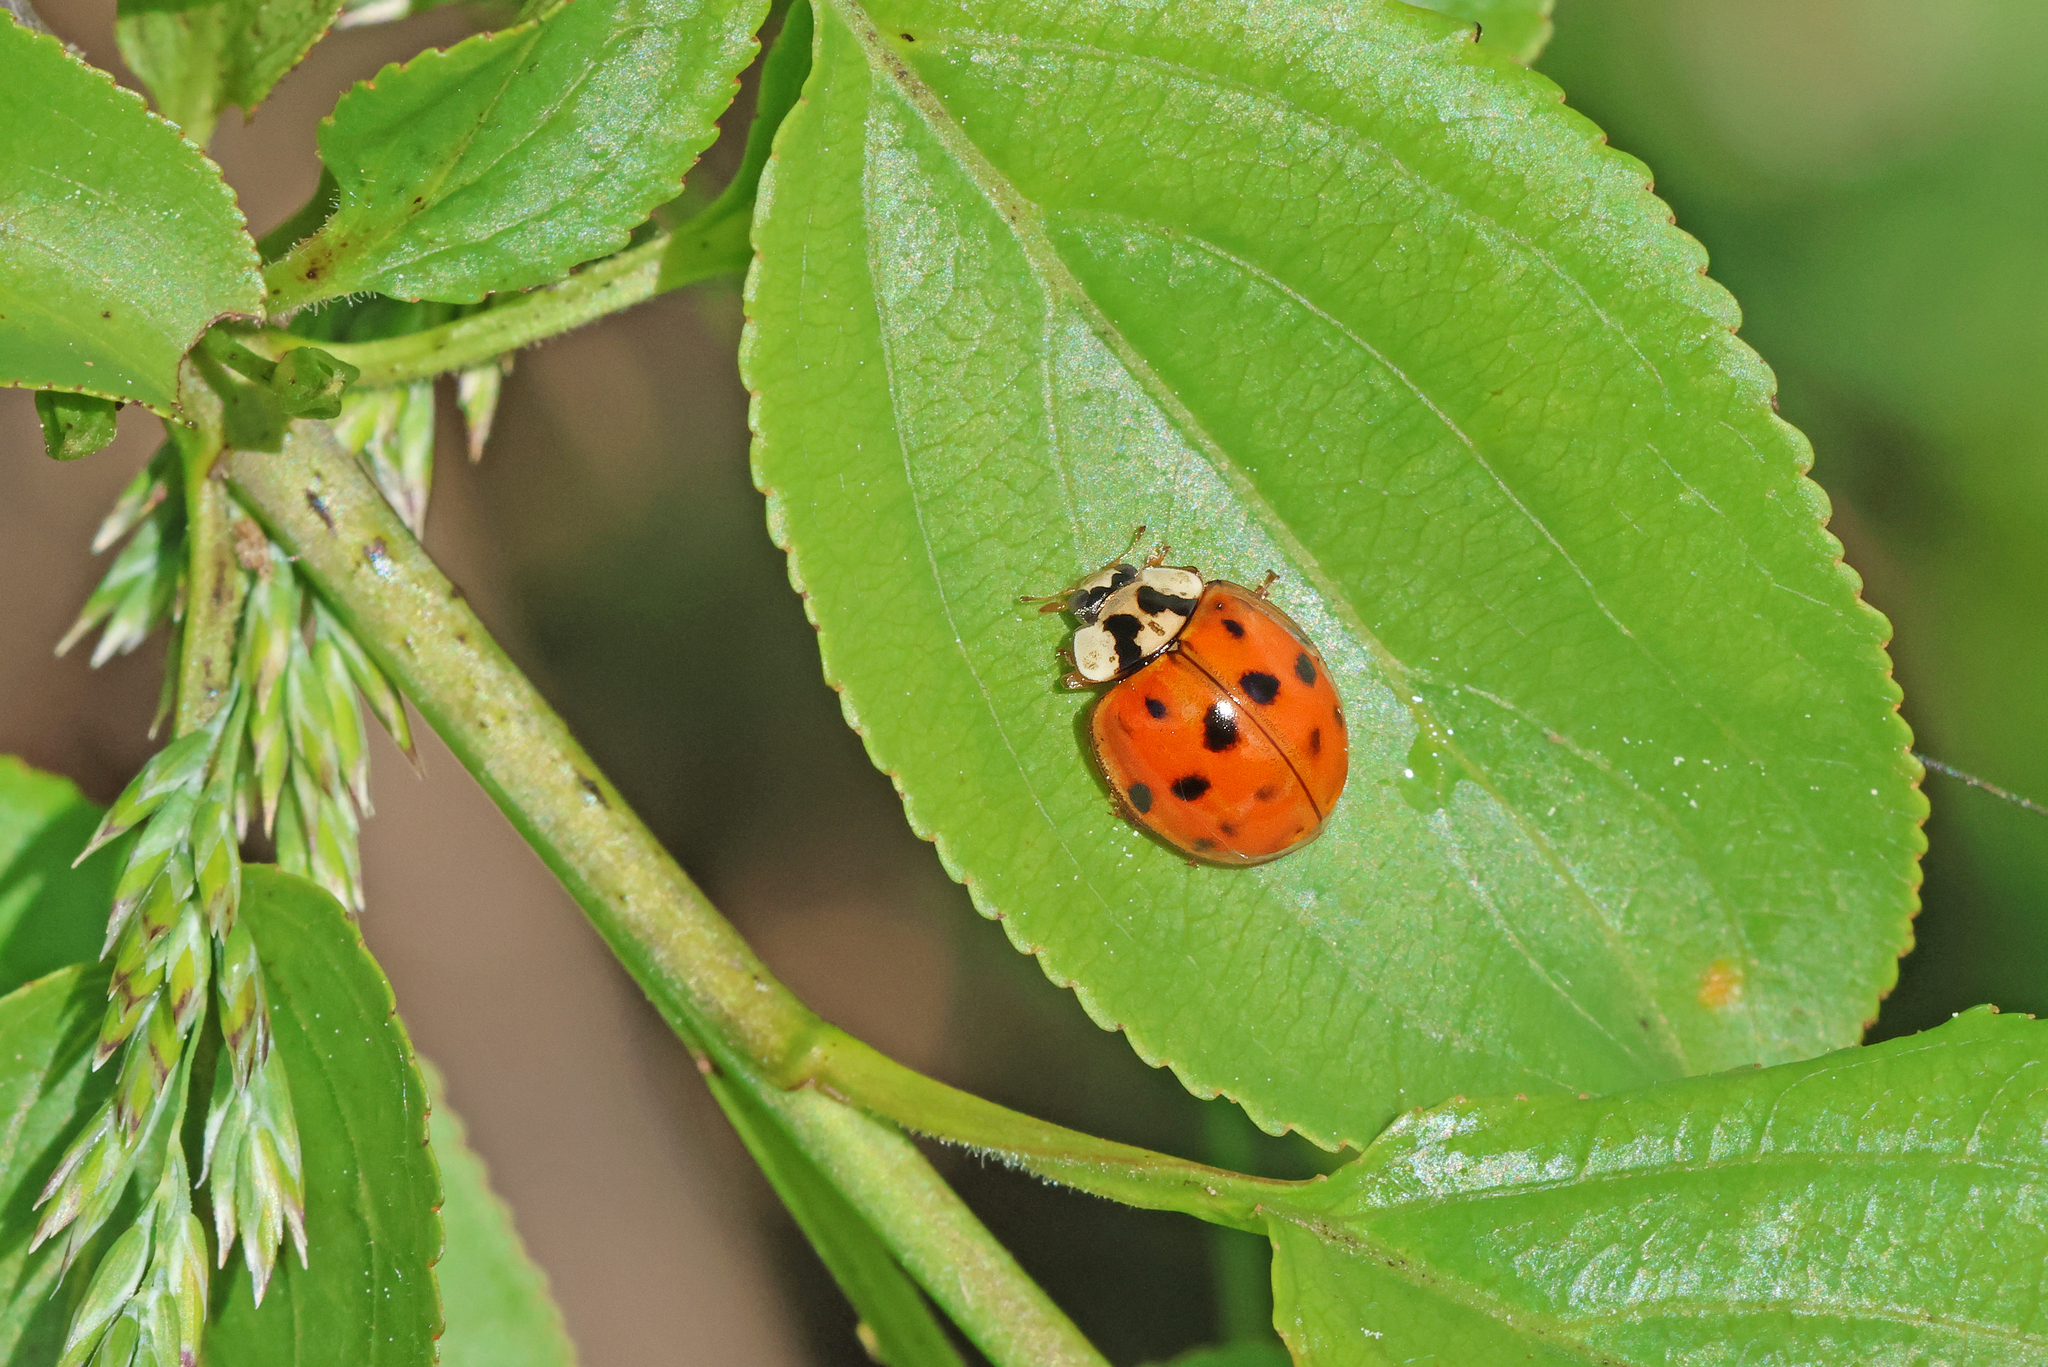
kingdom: Animalia
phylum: Arthropoda
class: Insecta
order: Coleoptera
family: Coccinellidae
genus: Harmonia
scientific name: Harmonia axyridis
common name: Harlequin ladybird
